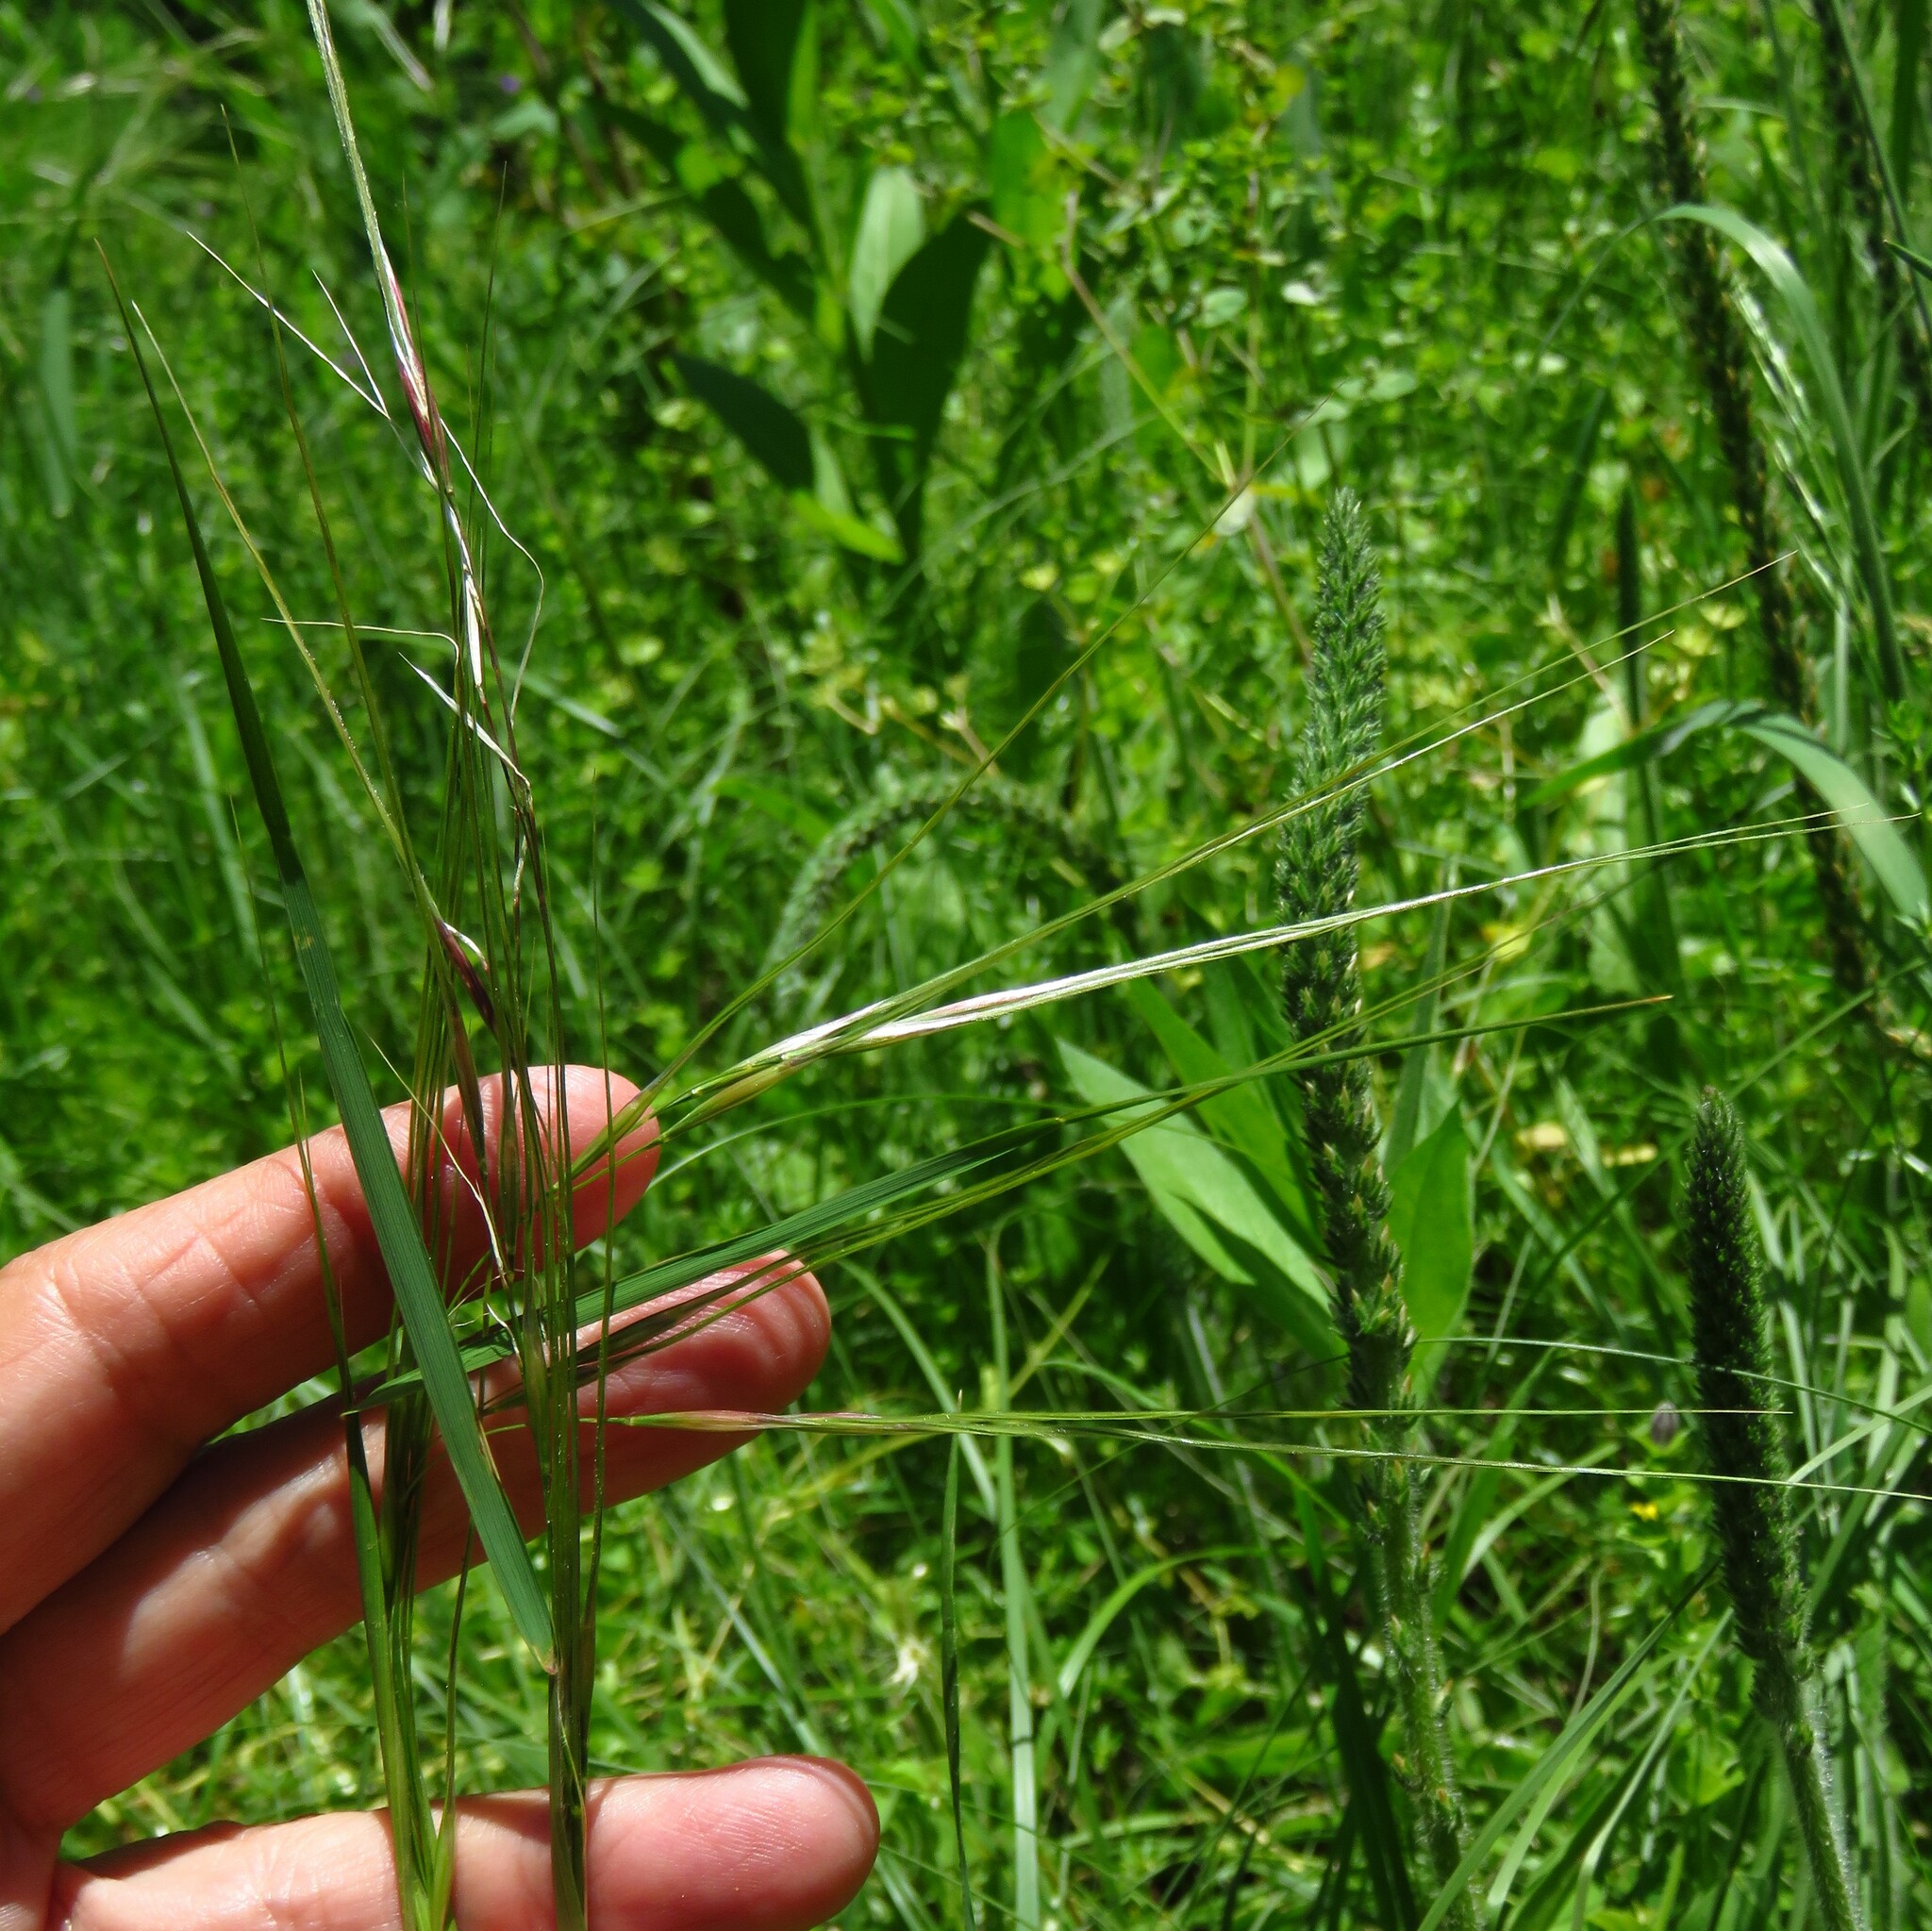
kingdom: Plantae
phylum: Tracheophyta
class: Liliopsida
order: Poales
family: Poaceae
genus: Nassella
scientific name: Nassella leucotricha
